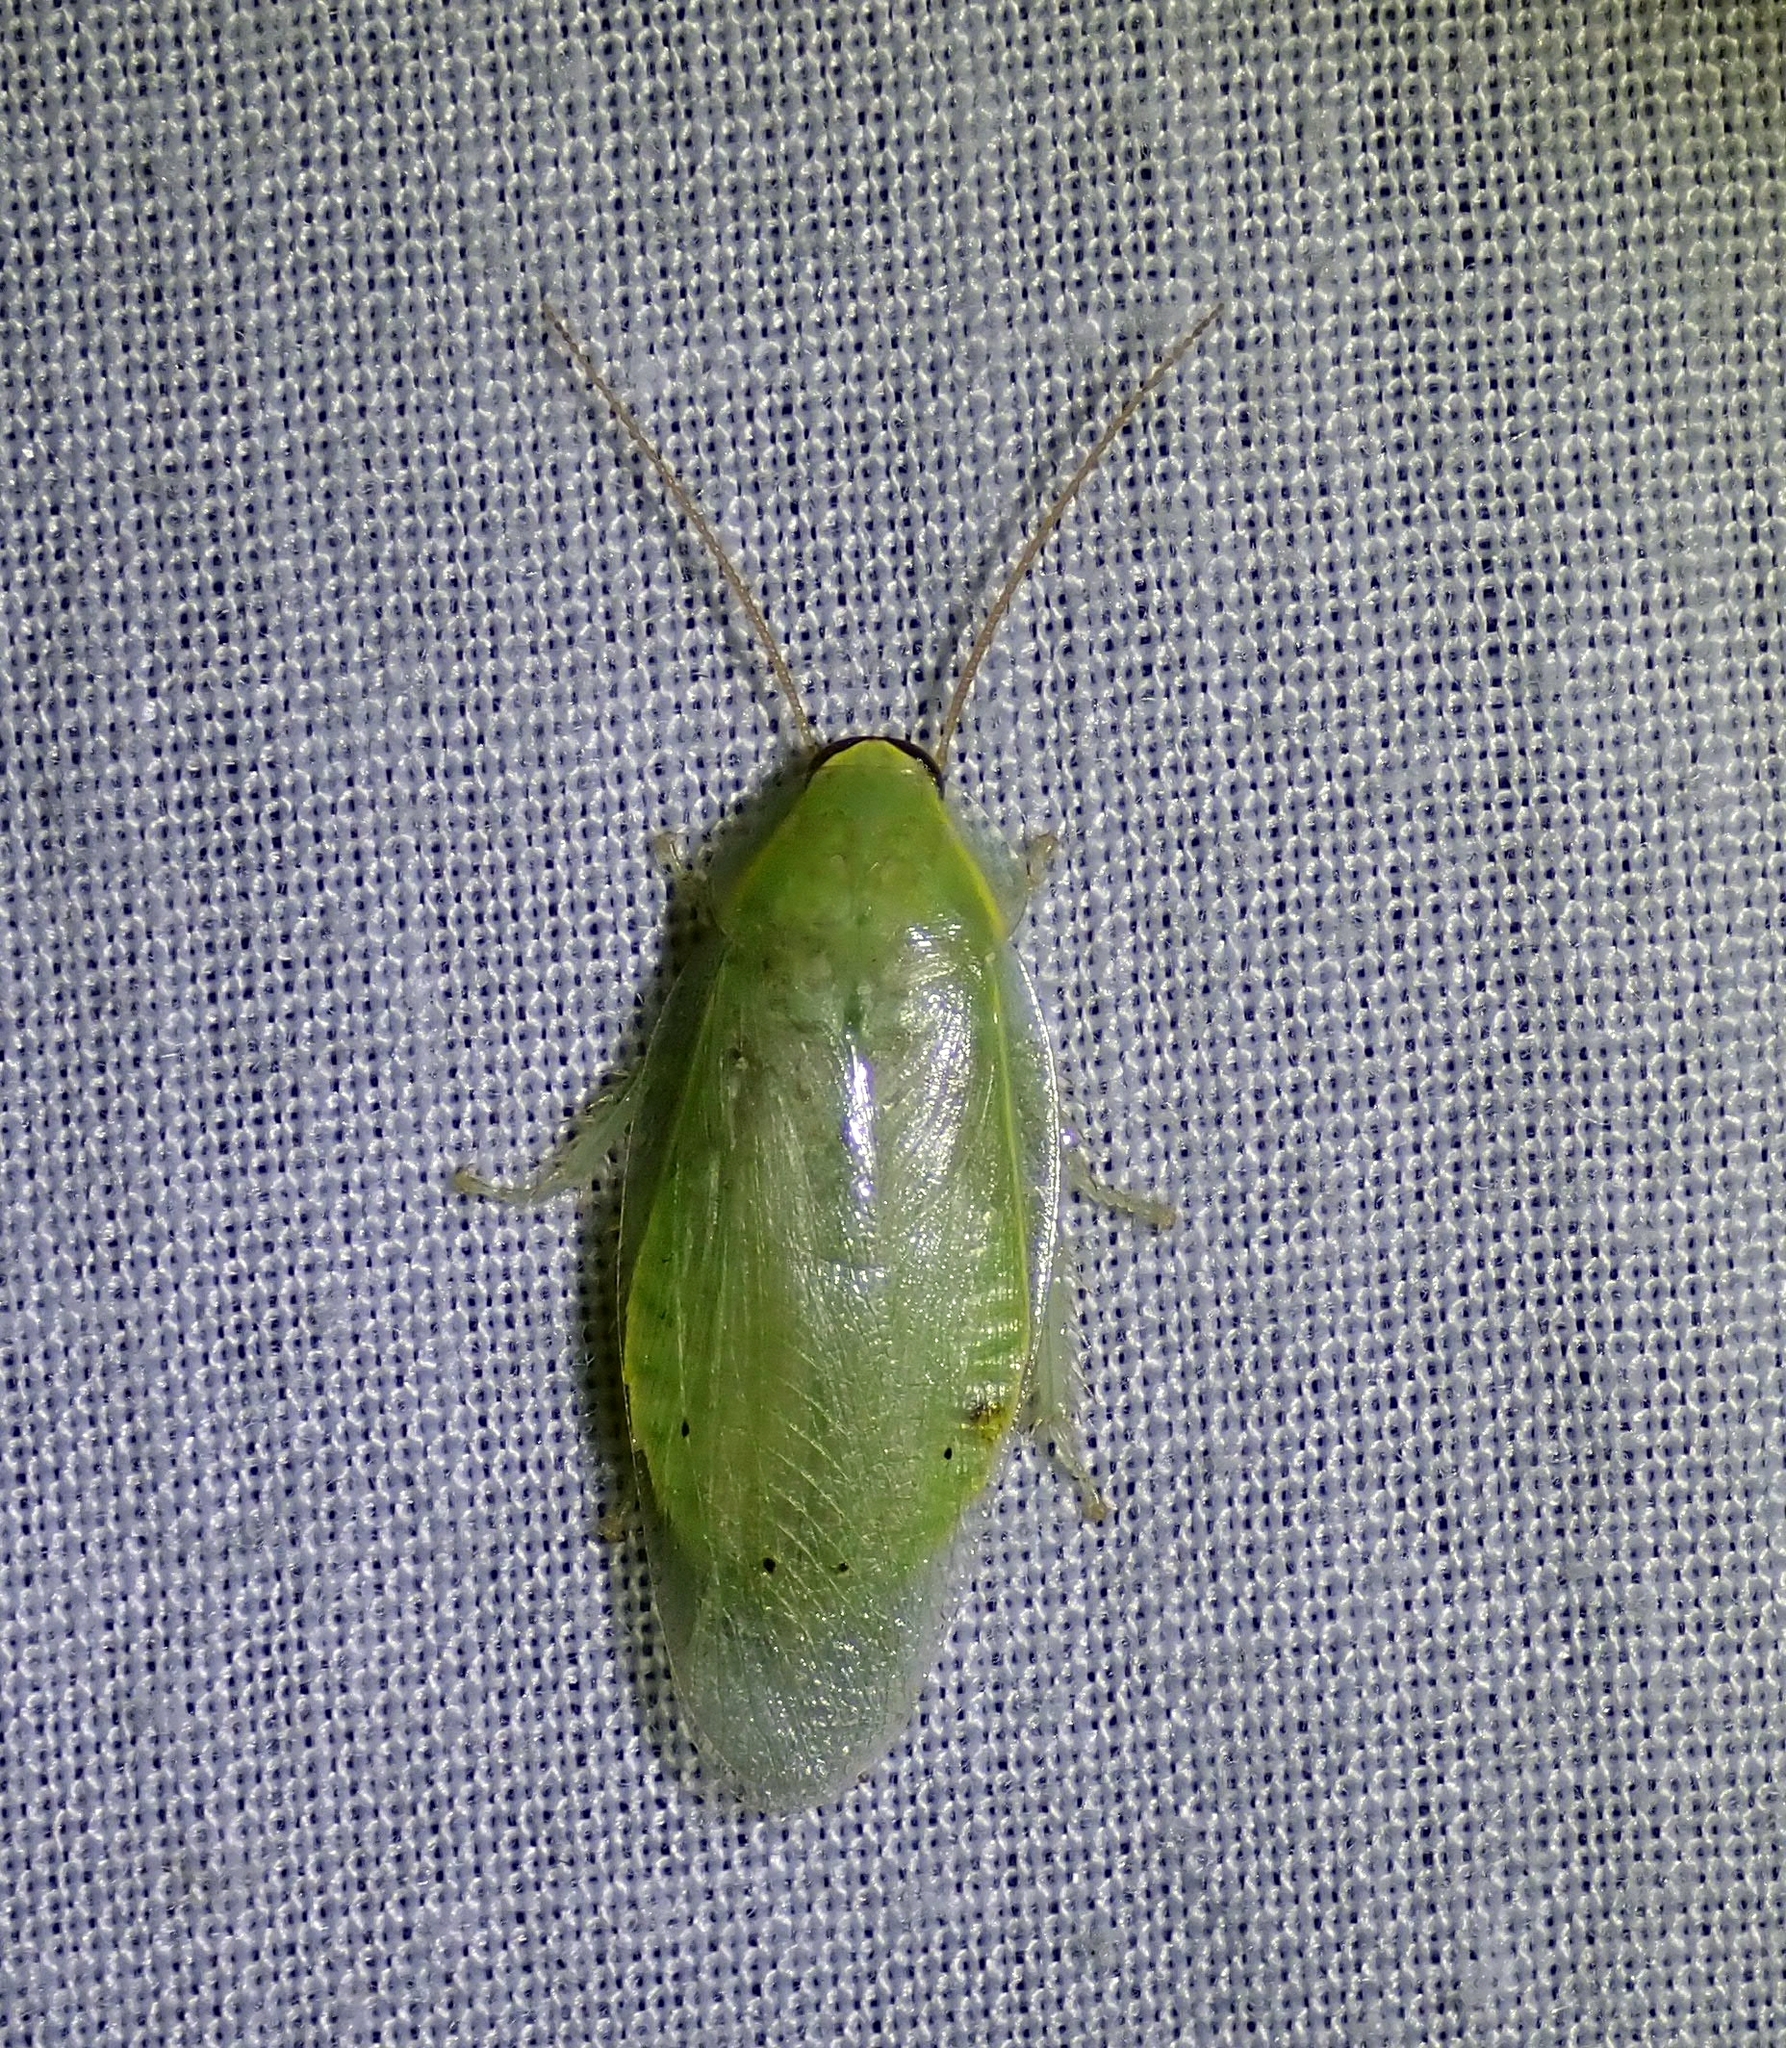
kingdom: Animalia
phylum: Arthropoda
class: Insecta
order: Blattodea
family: Blaberidae
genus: Panchlora
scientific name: Panchlora nivea
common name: Cuban cockroach
